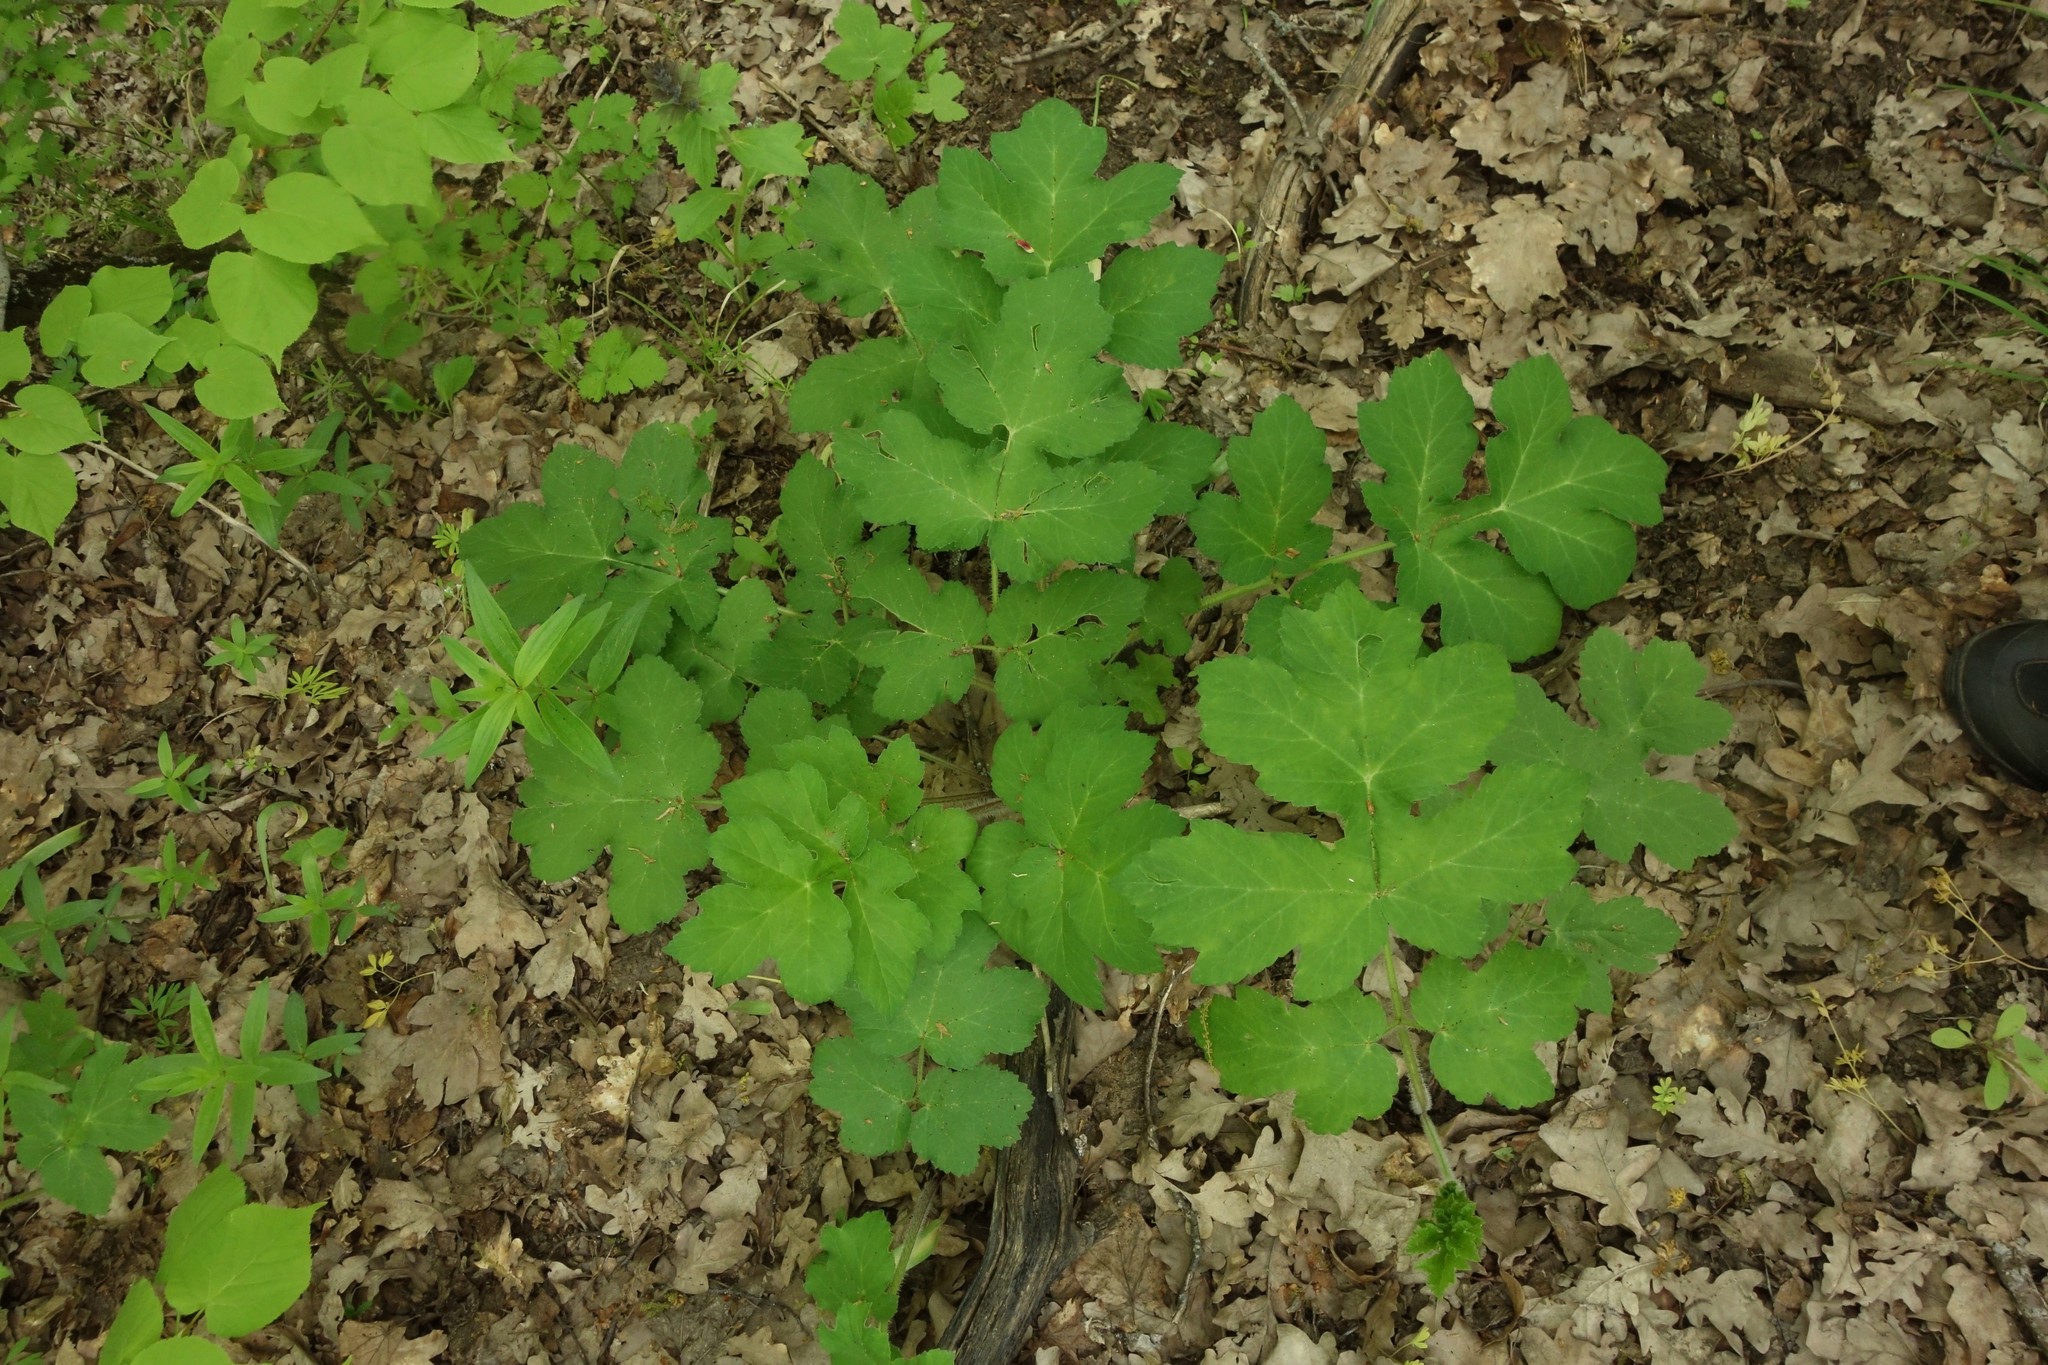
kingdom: Plantae
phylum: Tracheophyta
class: Magnoliopsida
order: Apiales
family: Apiaceae
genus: Heracleum
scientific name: Heracleum sphondylium
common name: Hogweed
